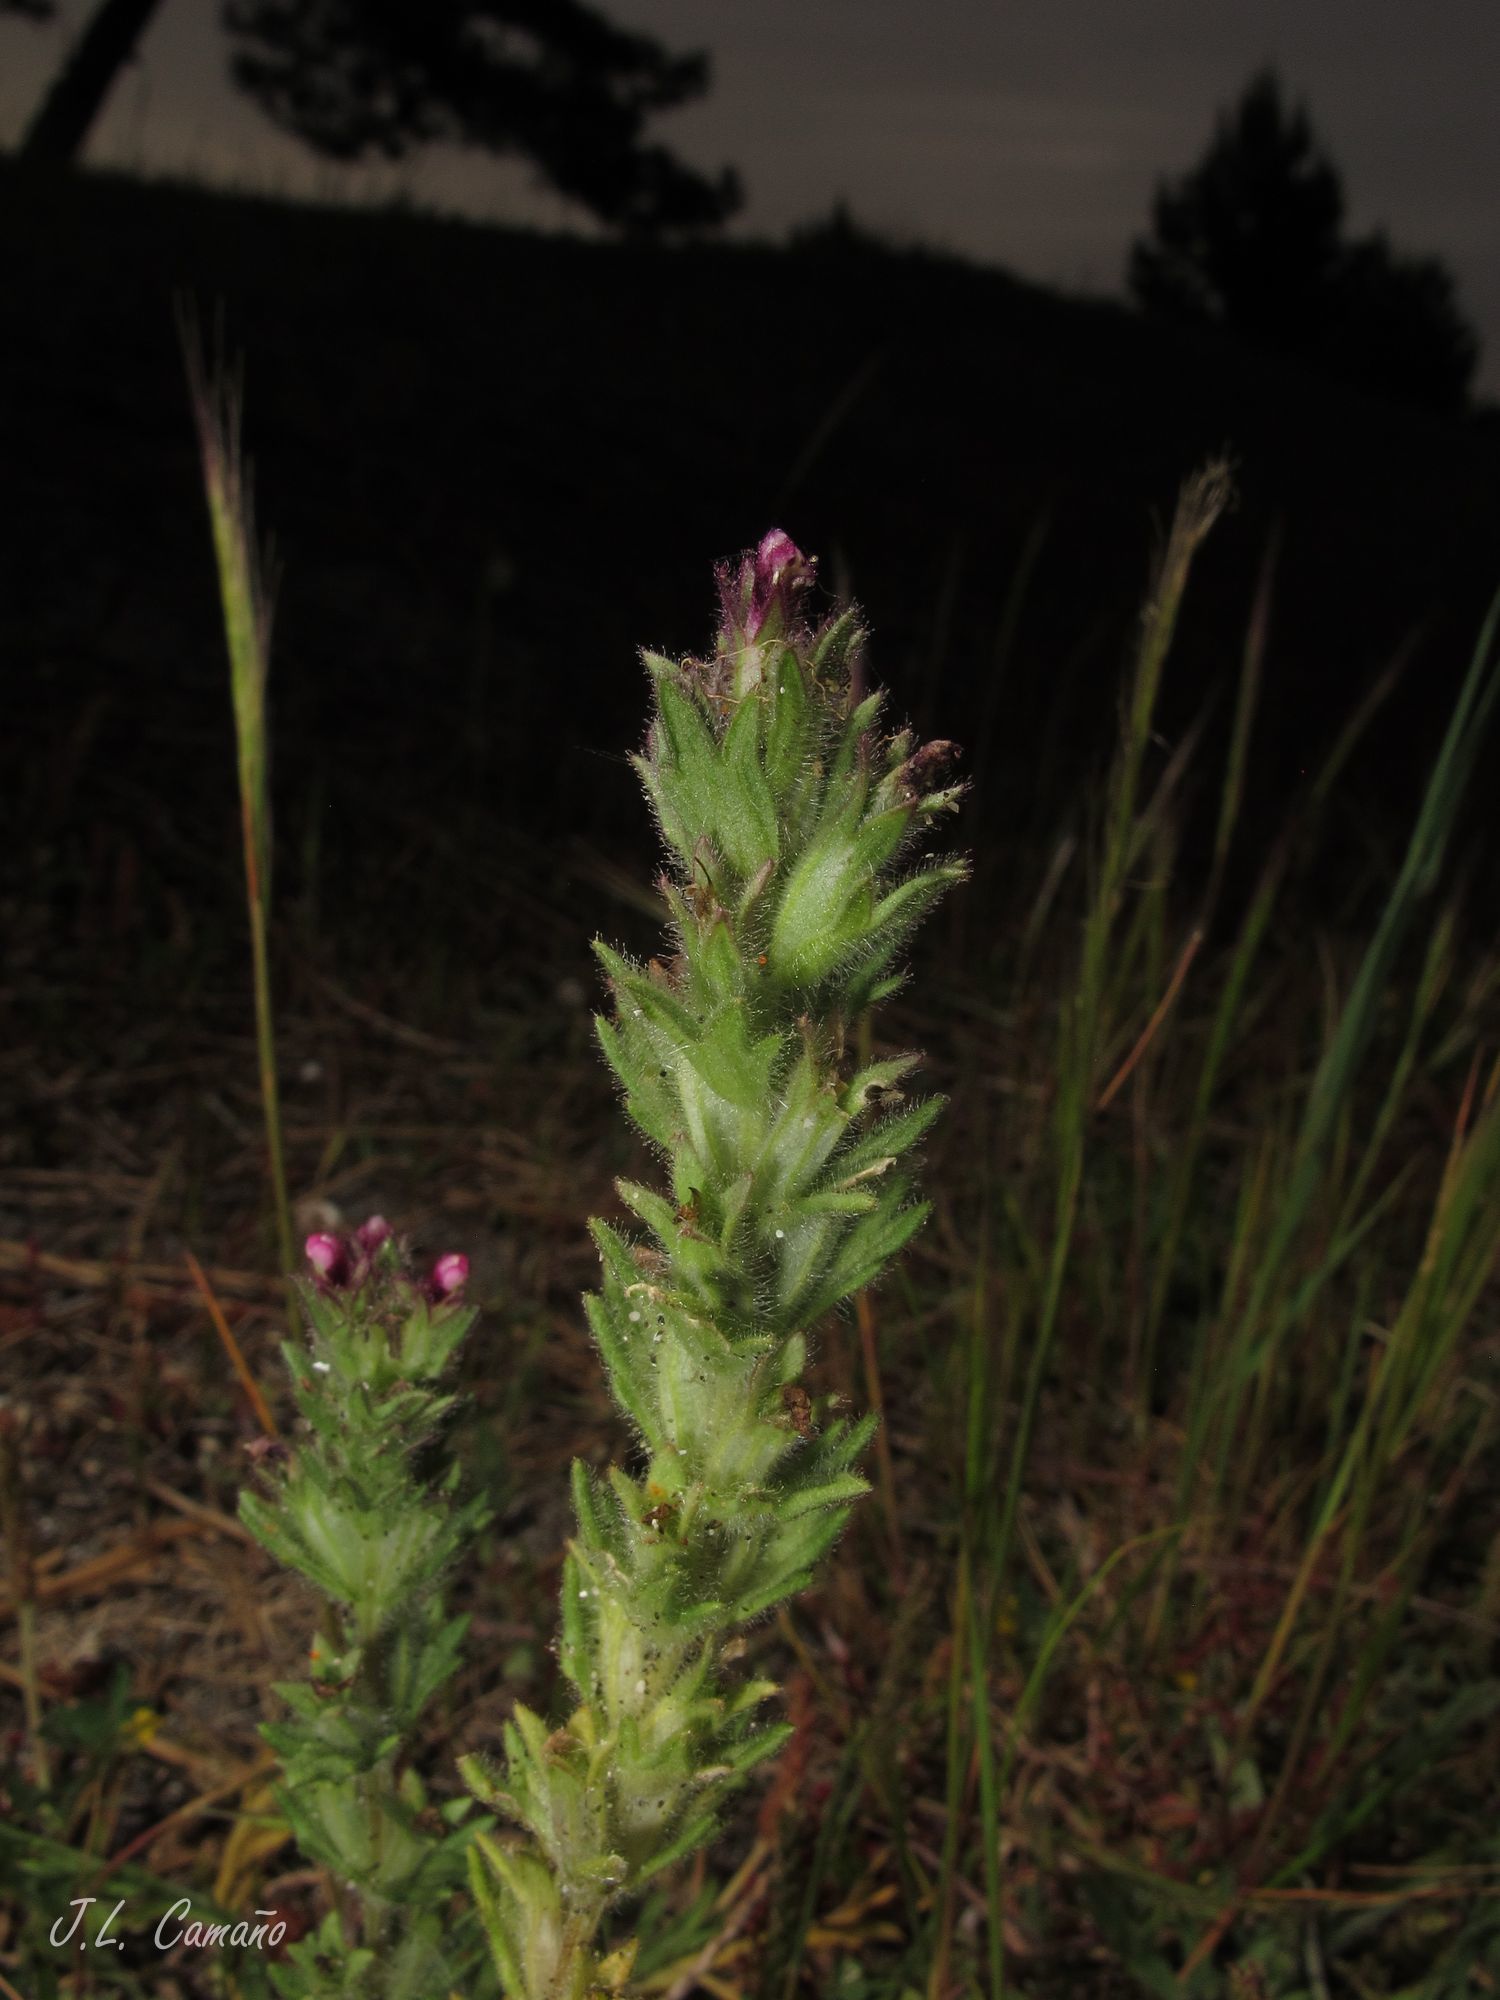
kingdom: Plantae
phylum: Tracheophyta
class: Magnoliopsida
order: Lamiales
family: Orobanchaceae
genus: Parentucellia
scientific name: Parentucellia latifolia
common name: Broadleaf glandweed
